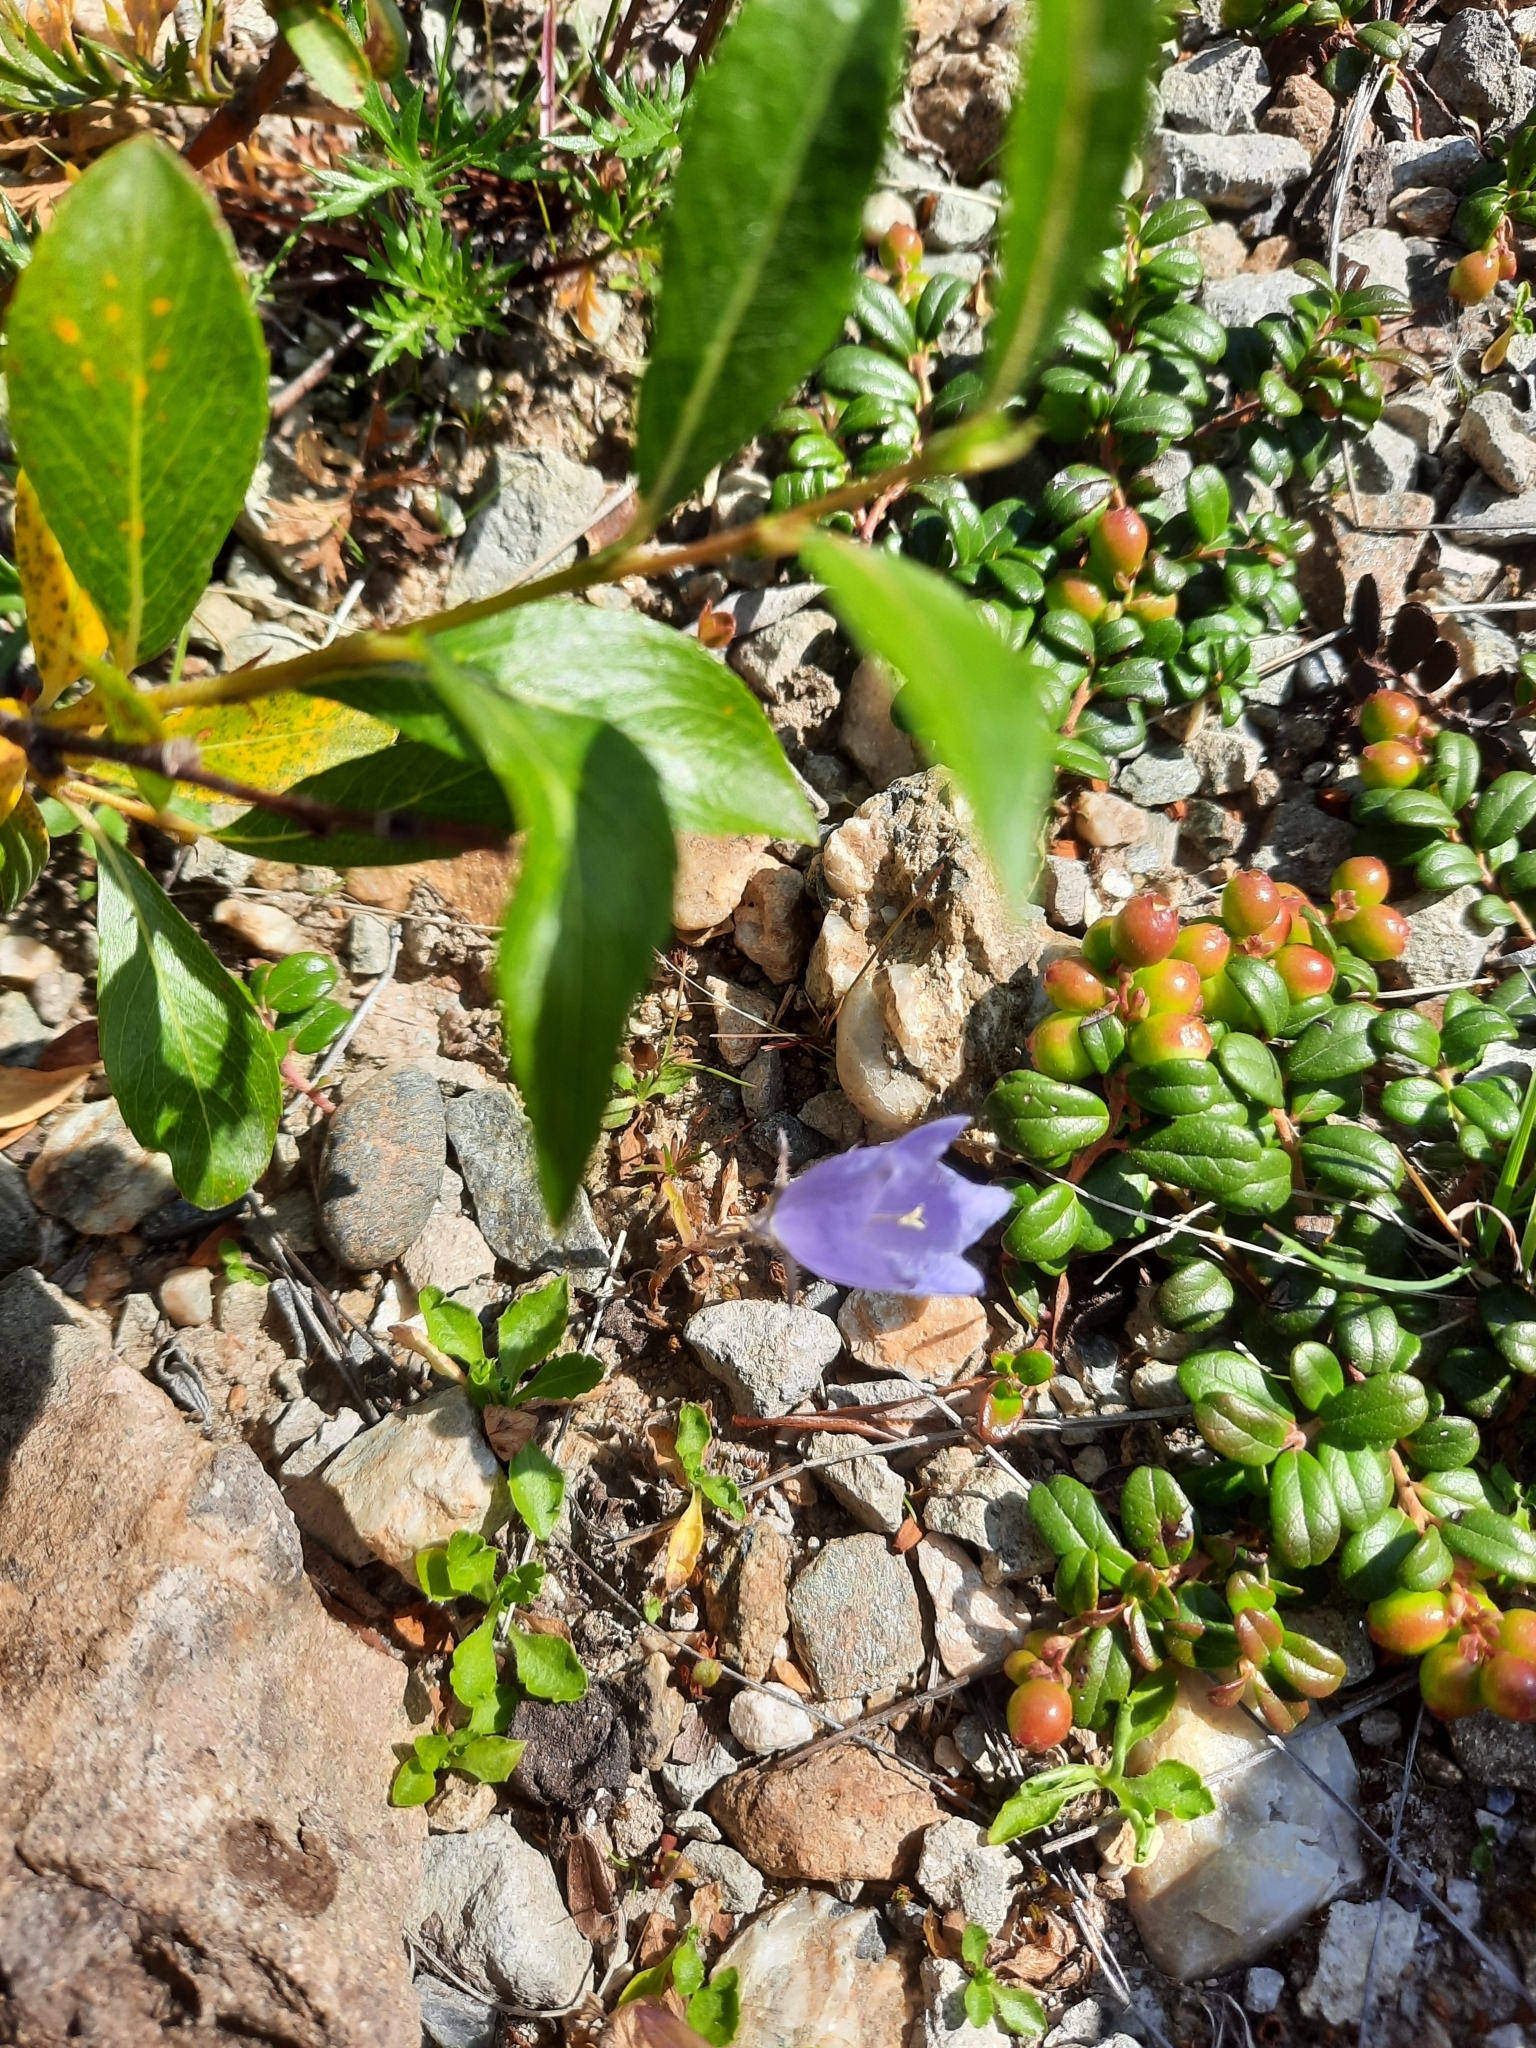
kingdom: Plantae
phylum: Tracheophyta
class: Magnoliopsida
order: Asterales
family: Campanulaceae
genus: Campanula
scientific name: Campanula lasiocarpa
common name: Mountain harebell
